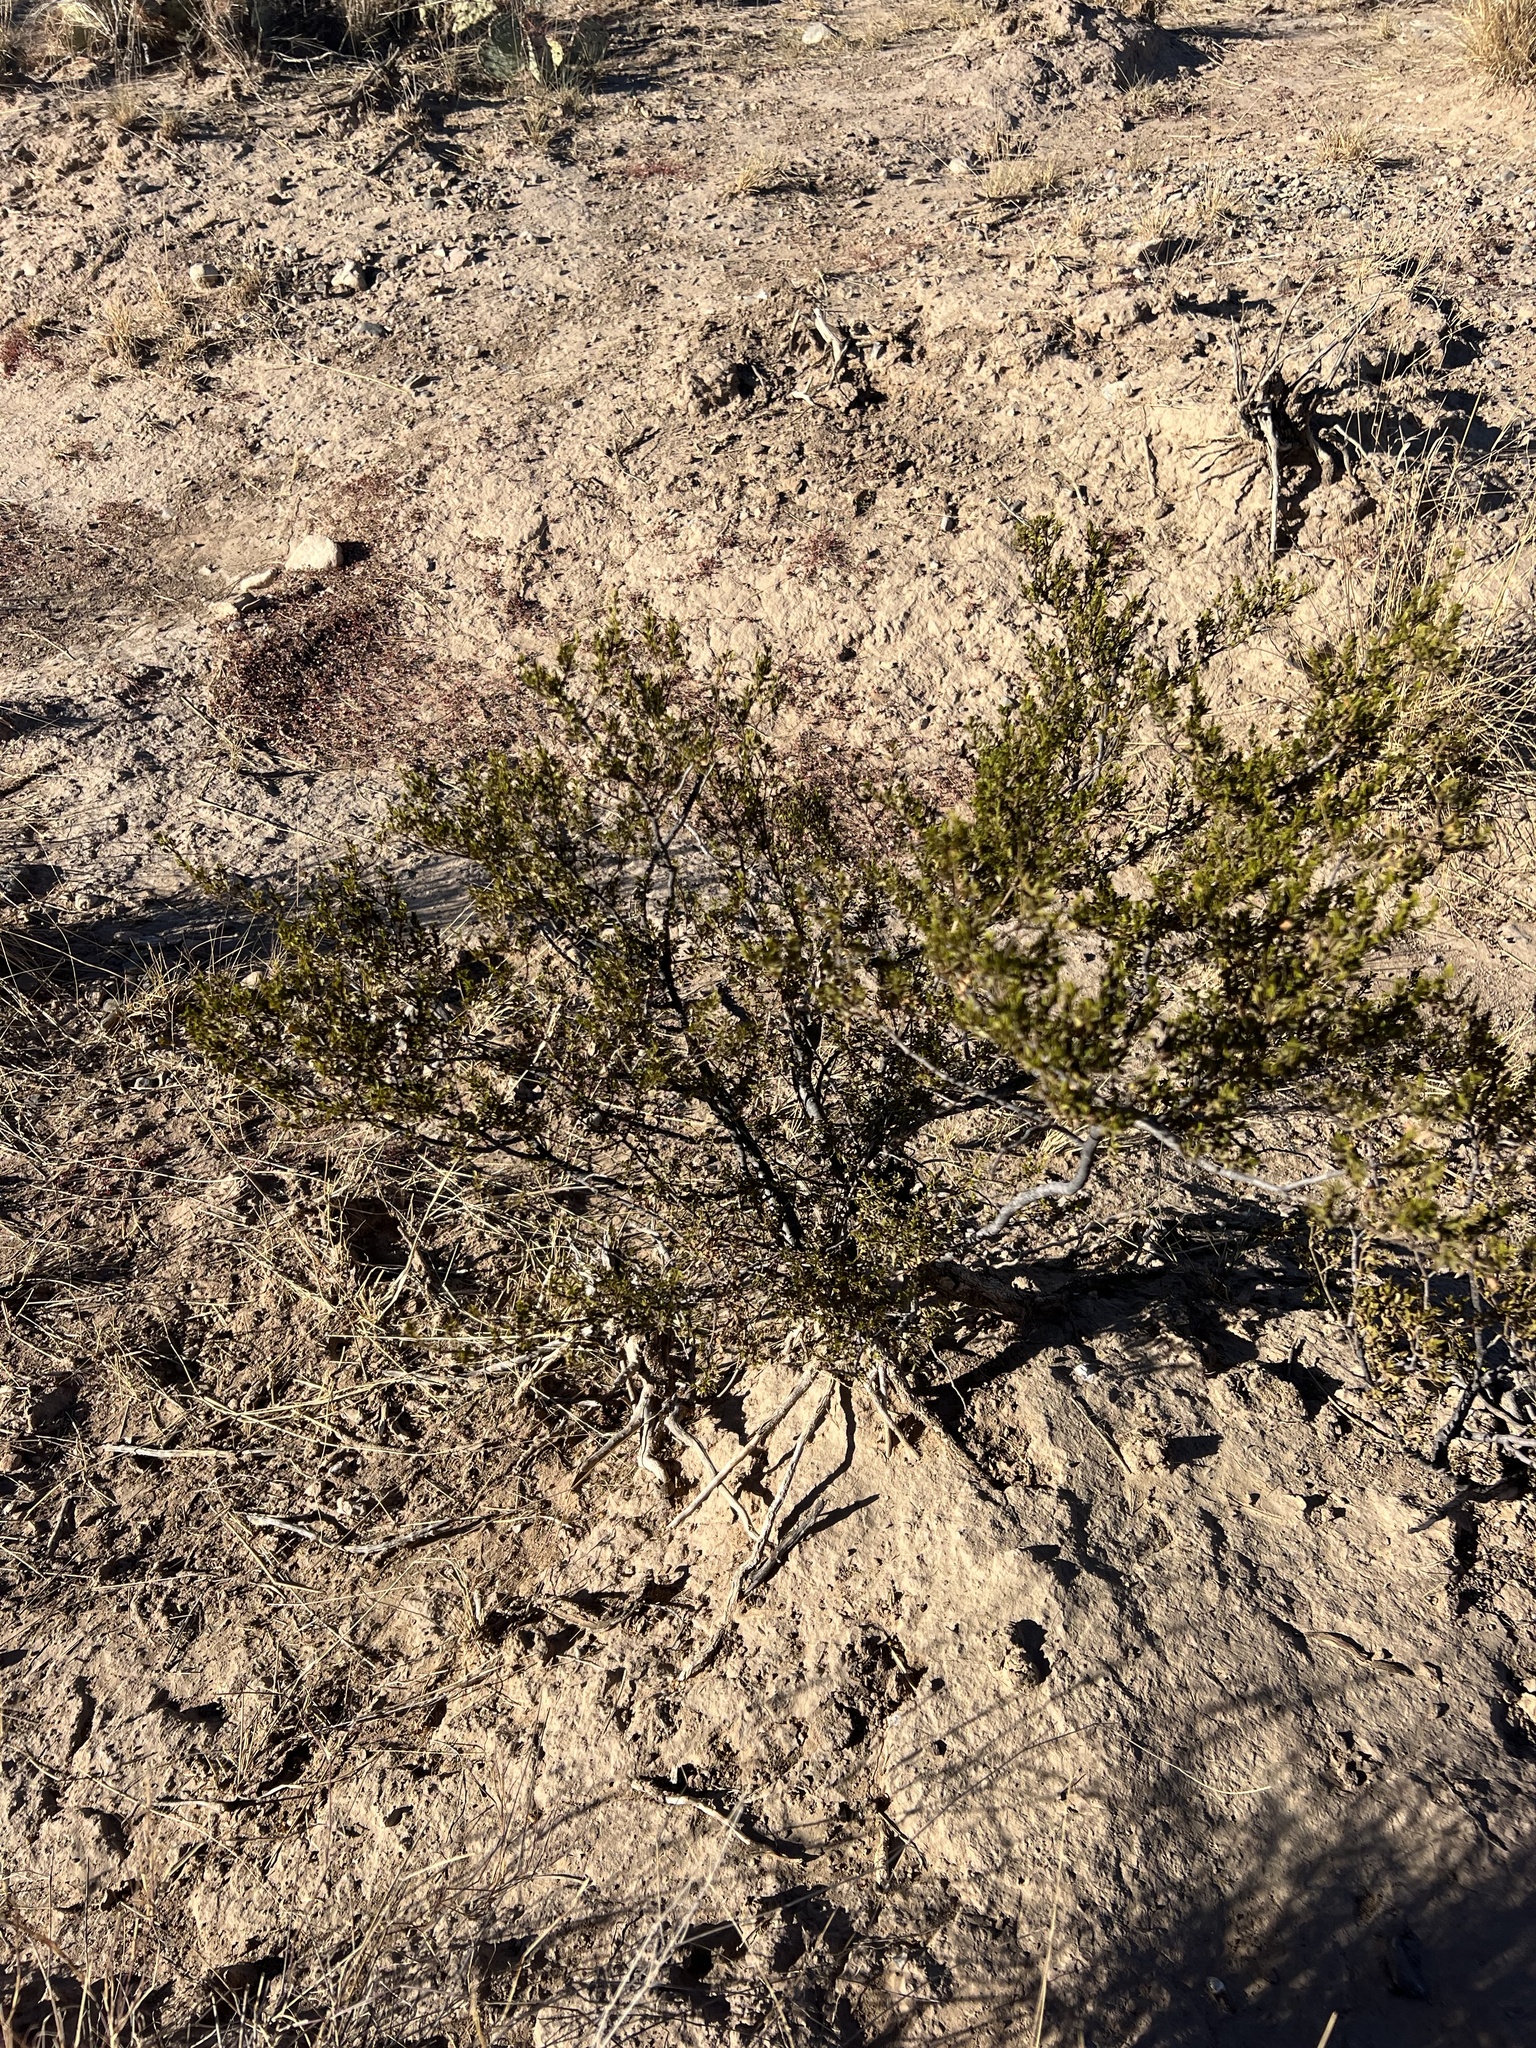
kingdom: Plantae
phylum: Tracheophyta
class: Magnoliopsida
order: Zygophyllales
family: Zygophyllaceae
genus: Larrea
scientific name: Larrea tridentata
